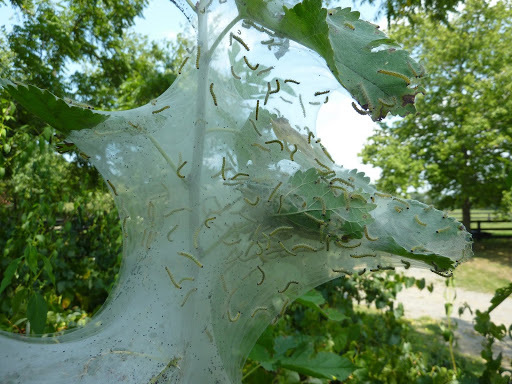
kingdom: Animalia
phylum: Arthropoda
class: Insecta
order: Lepidoptera
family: Erebidae
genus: Hyphantria
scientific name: Hyphantria cunea
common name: American white moth
